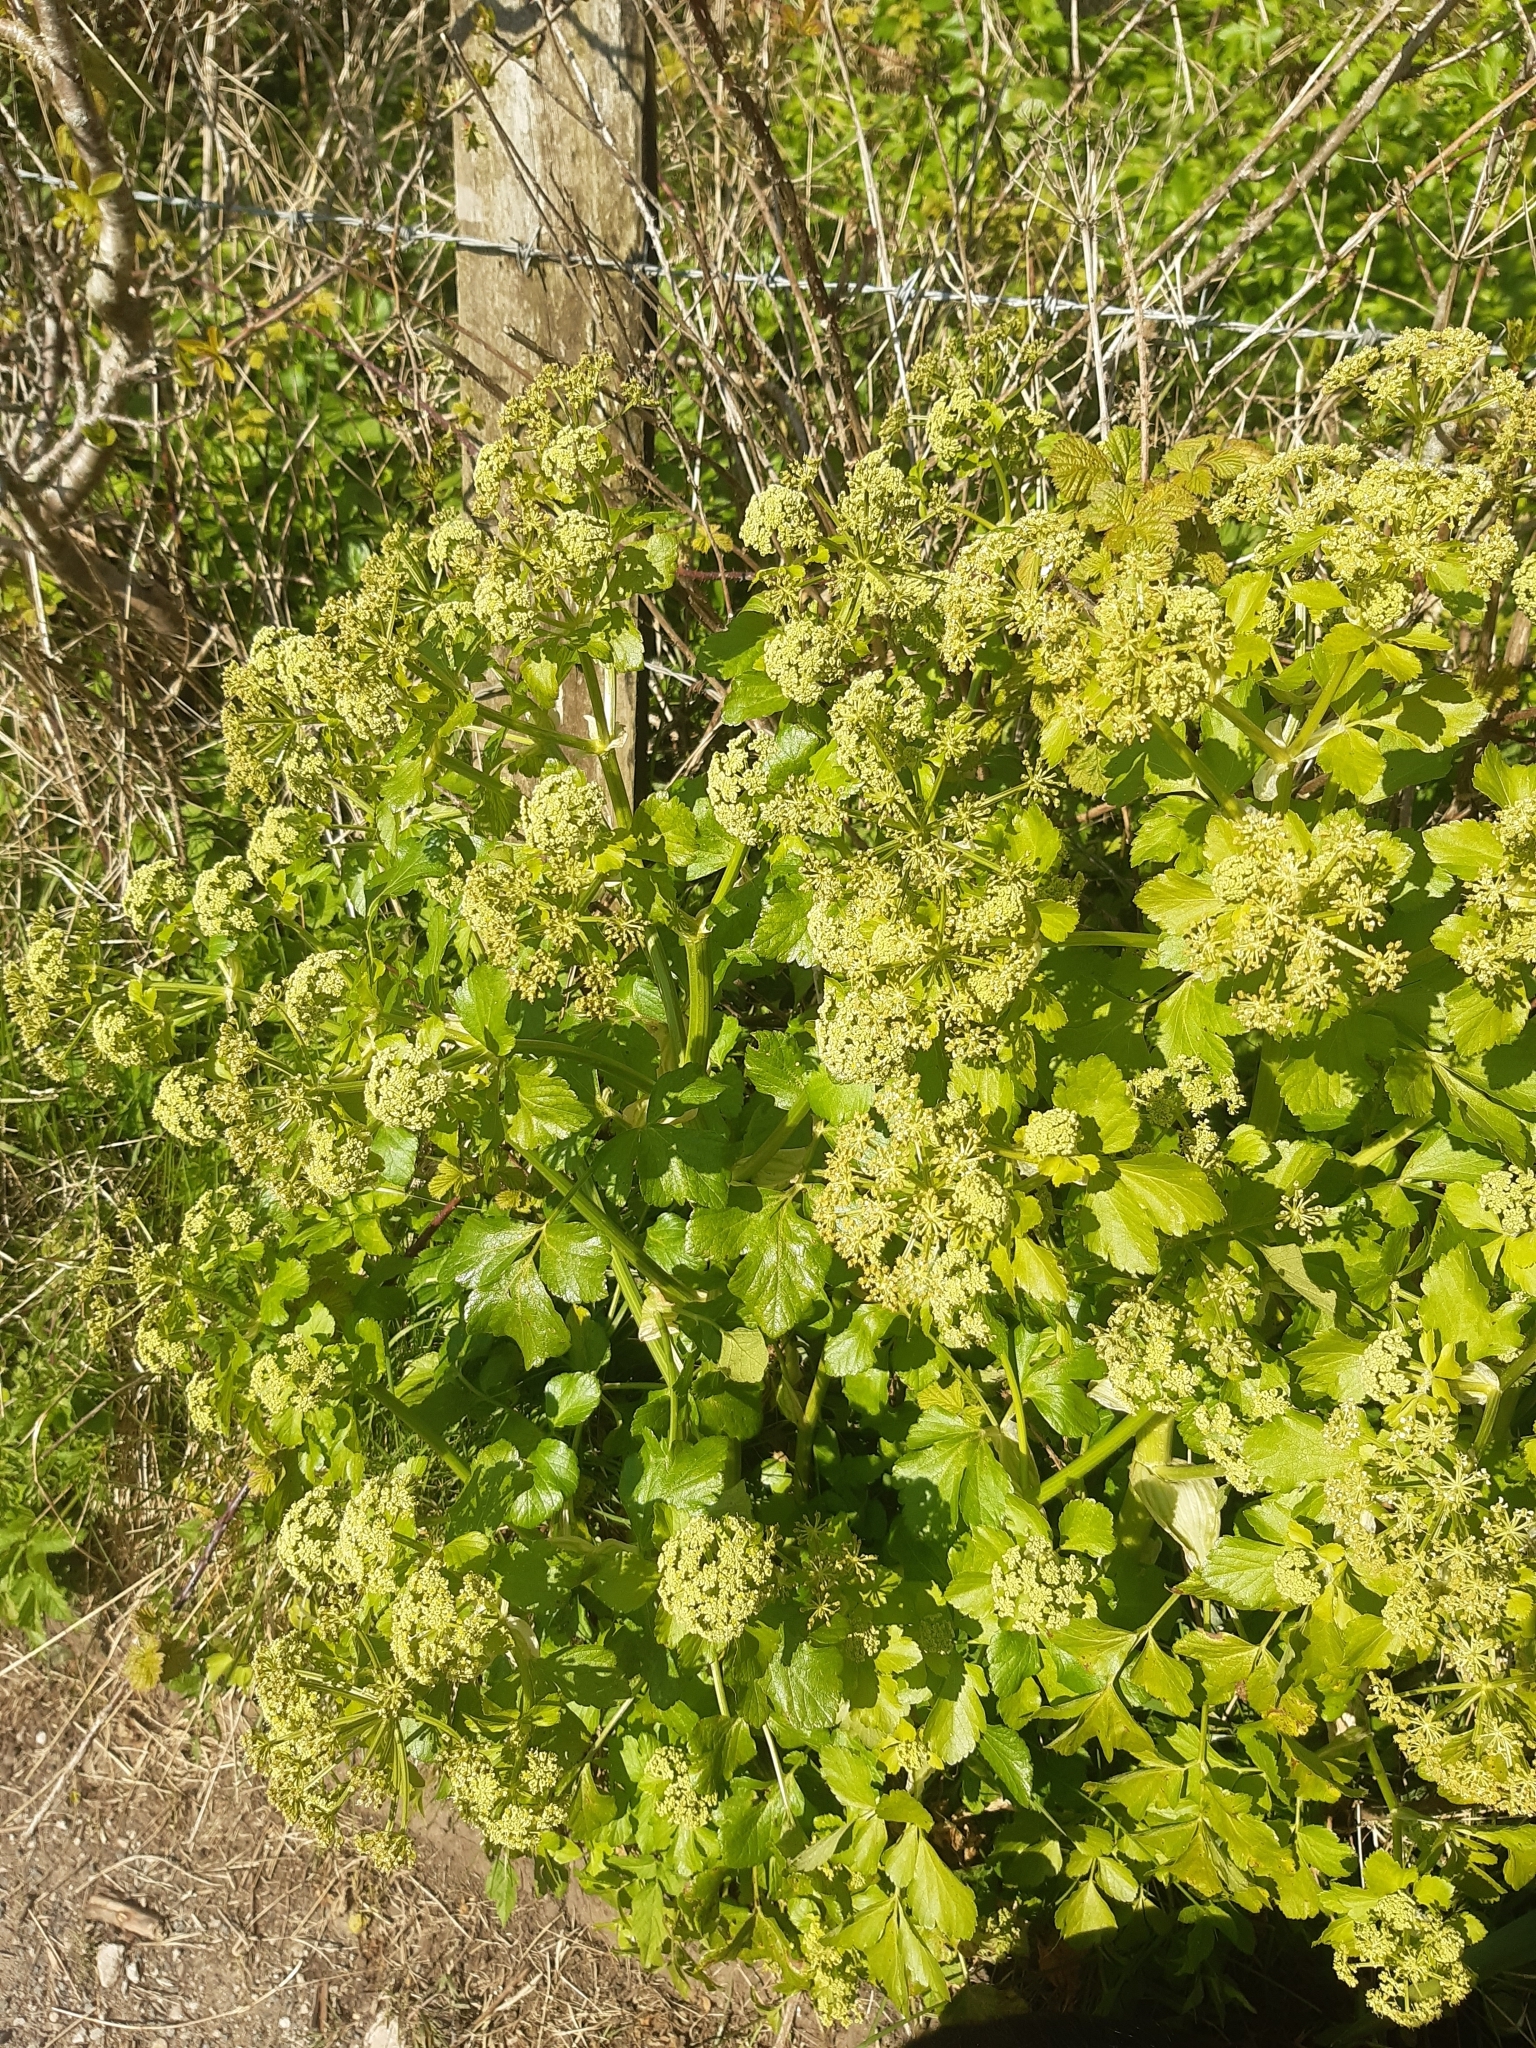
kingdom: Plantae
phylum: Tracheophyta
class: Magnoliopsida
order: Apiales
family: Apiaceae
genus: Smyrnium
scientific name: Smyrnium olusatrum
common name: Alexanders
